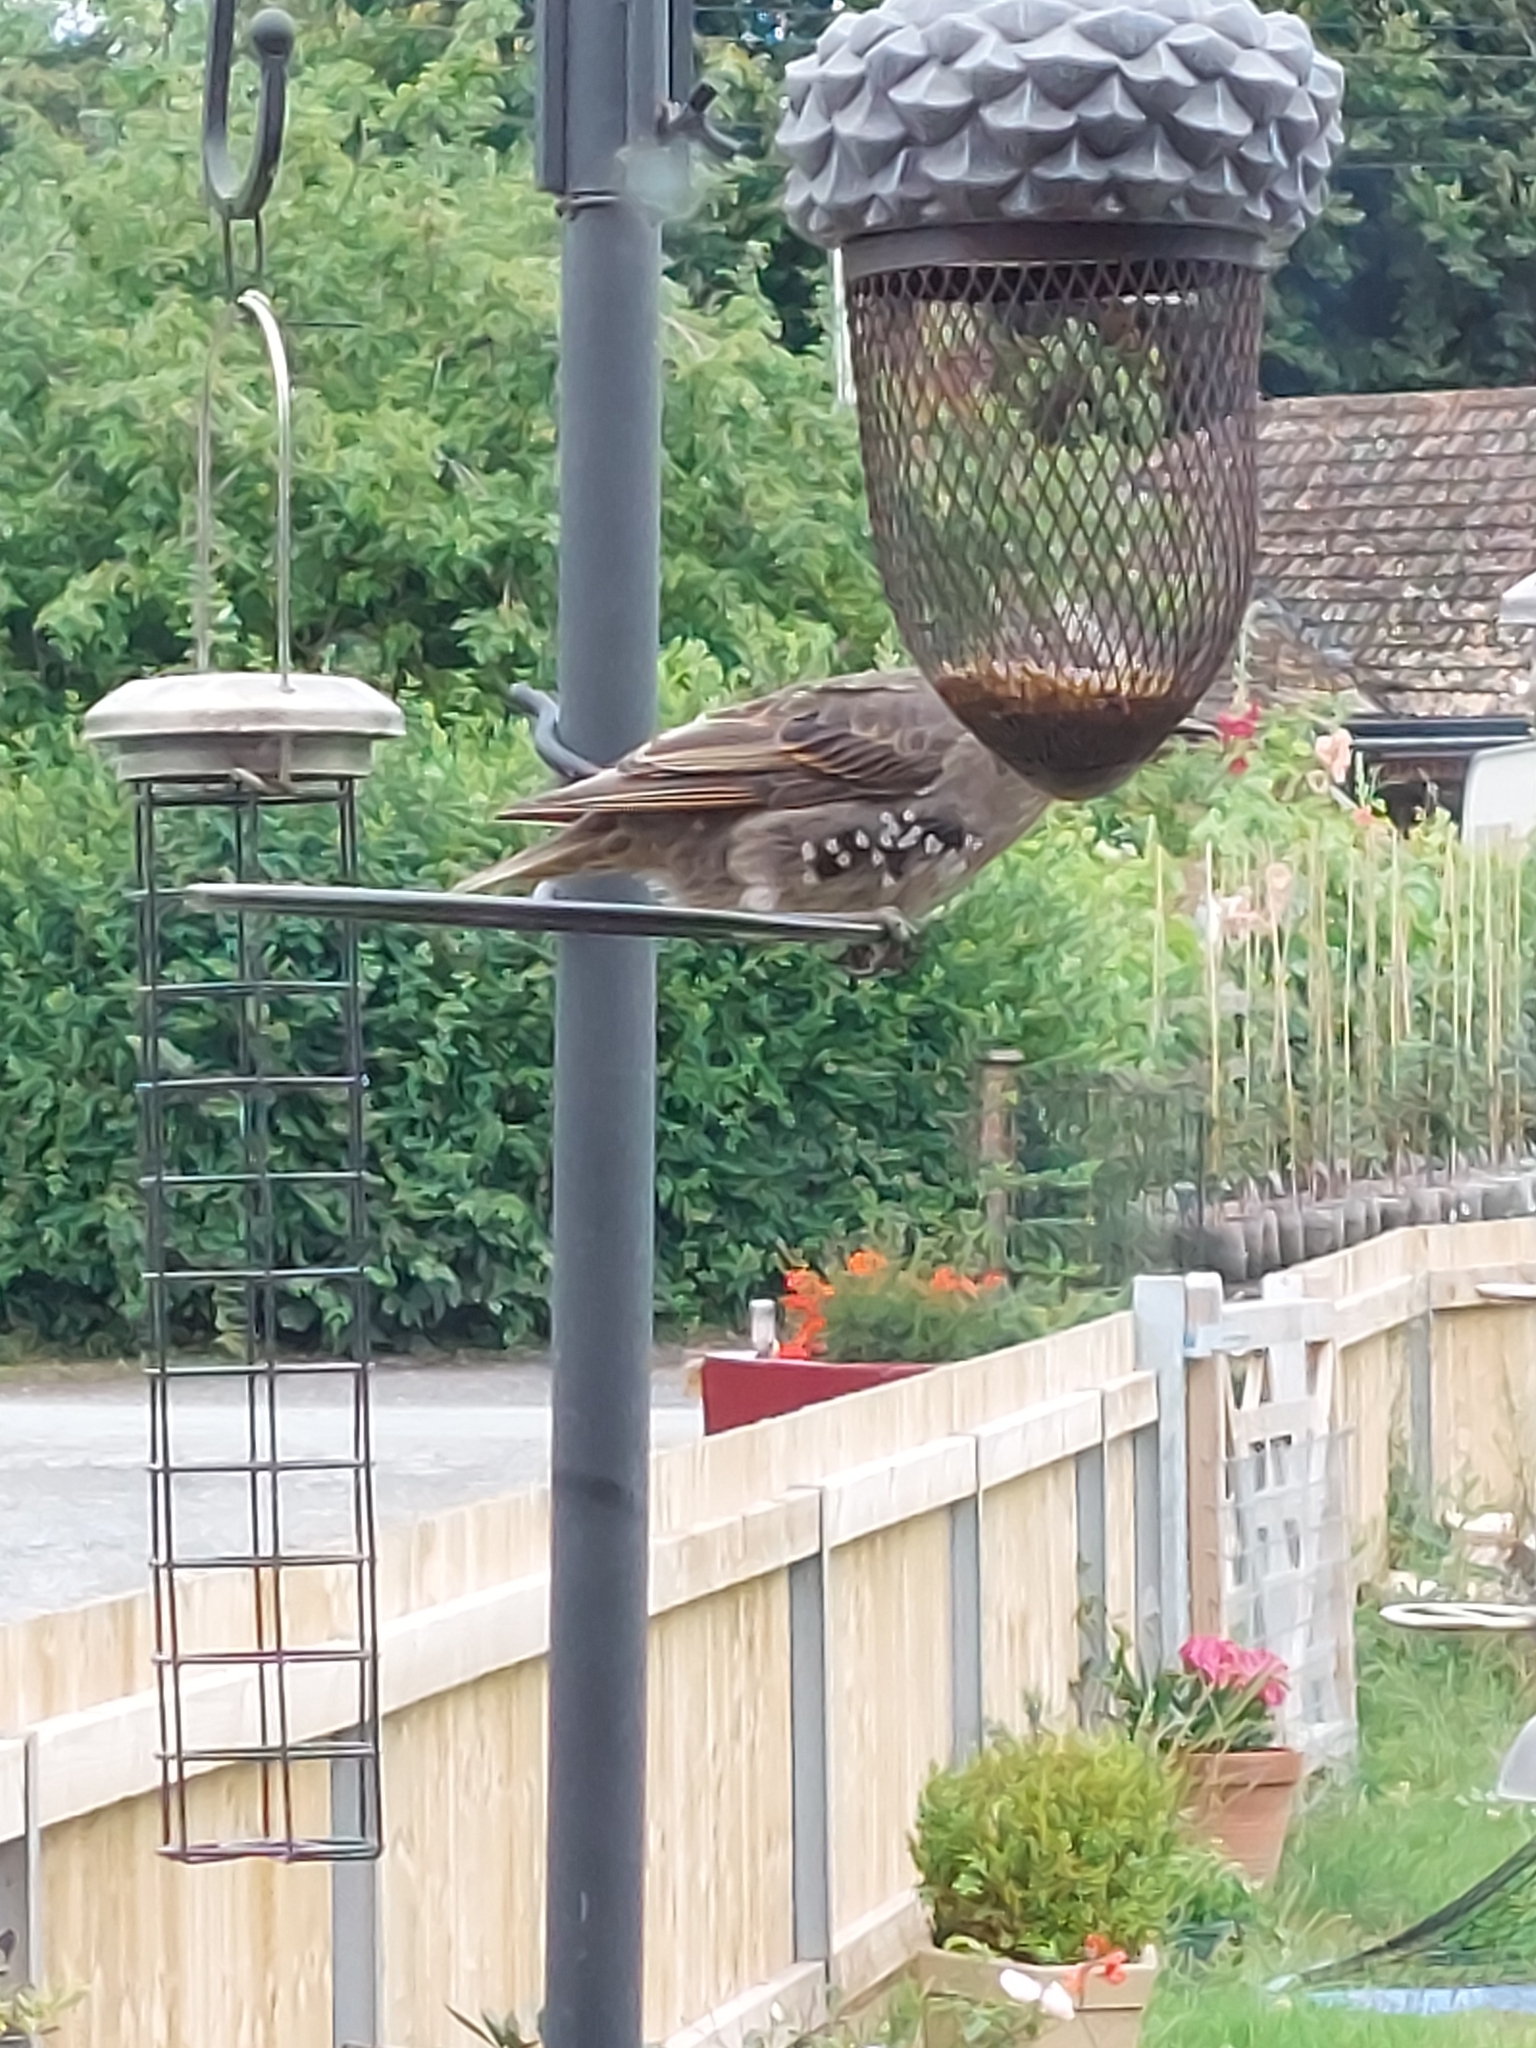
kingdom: Animalia
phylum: Chordata
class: Aves
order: Passeriformes
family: Sturnidae
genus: Sturnus
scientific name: Sturnus vulgaris
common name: Common starling
